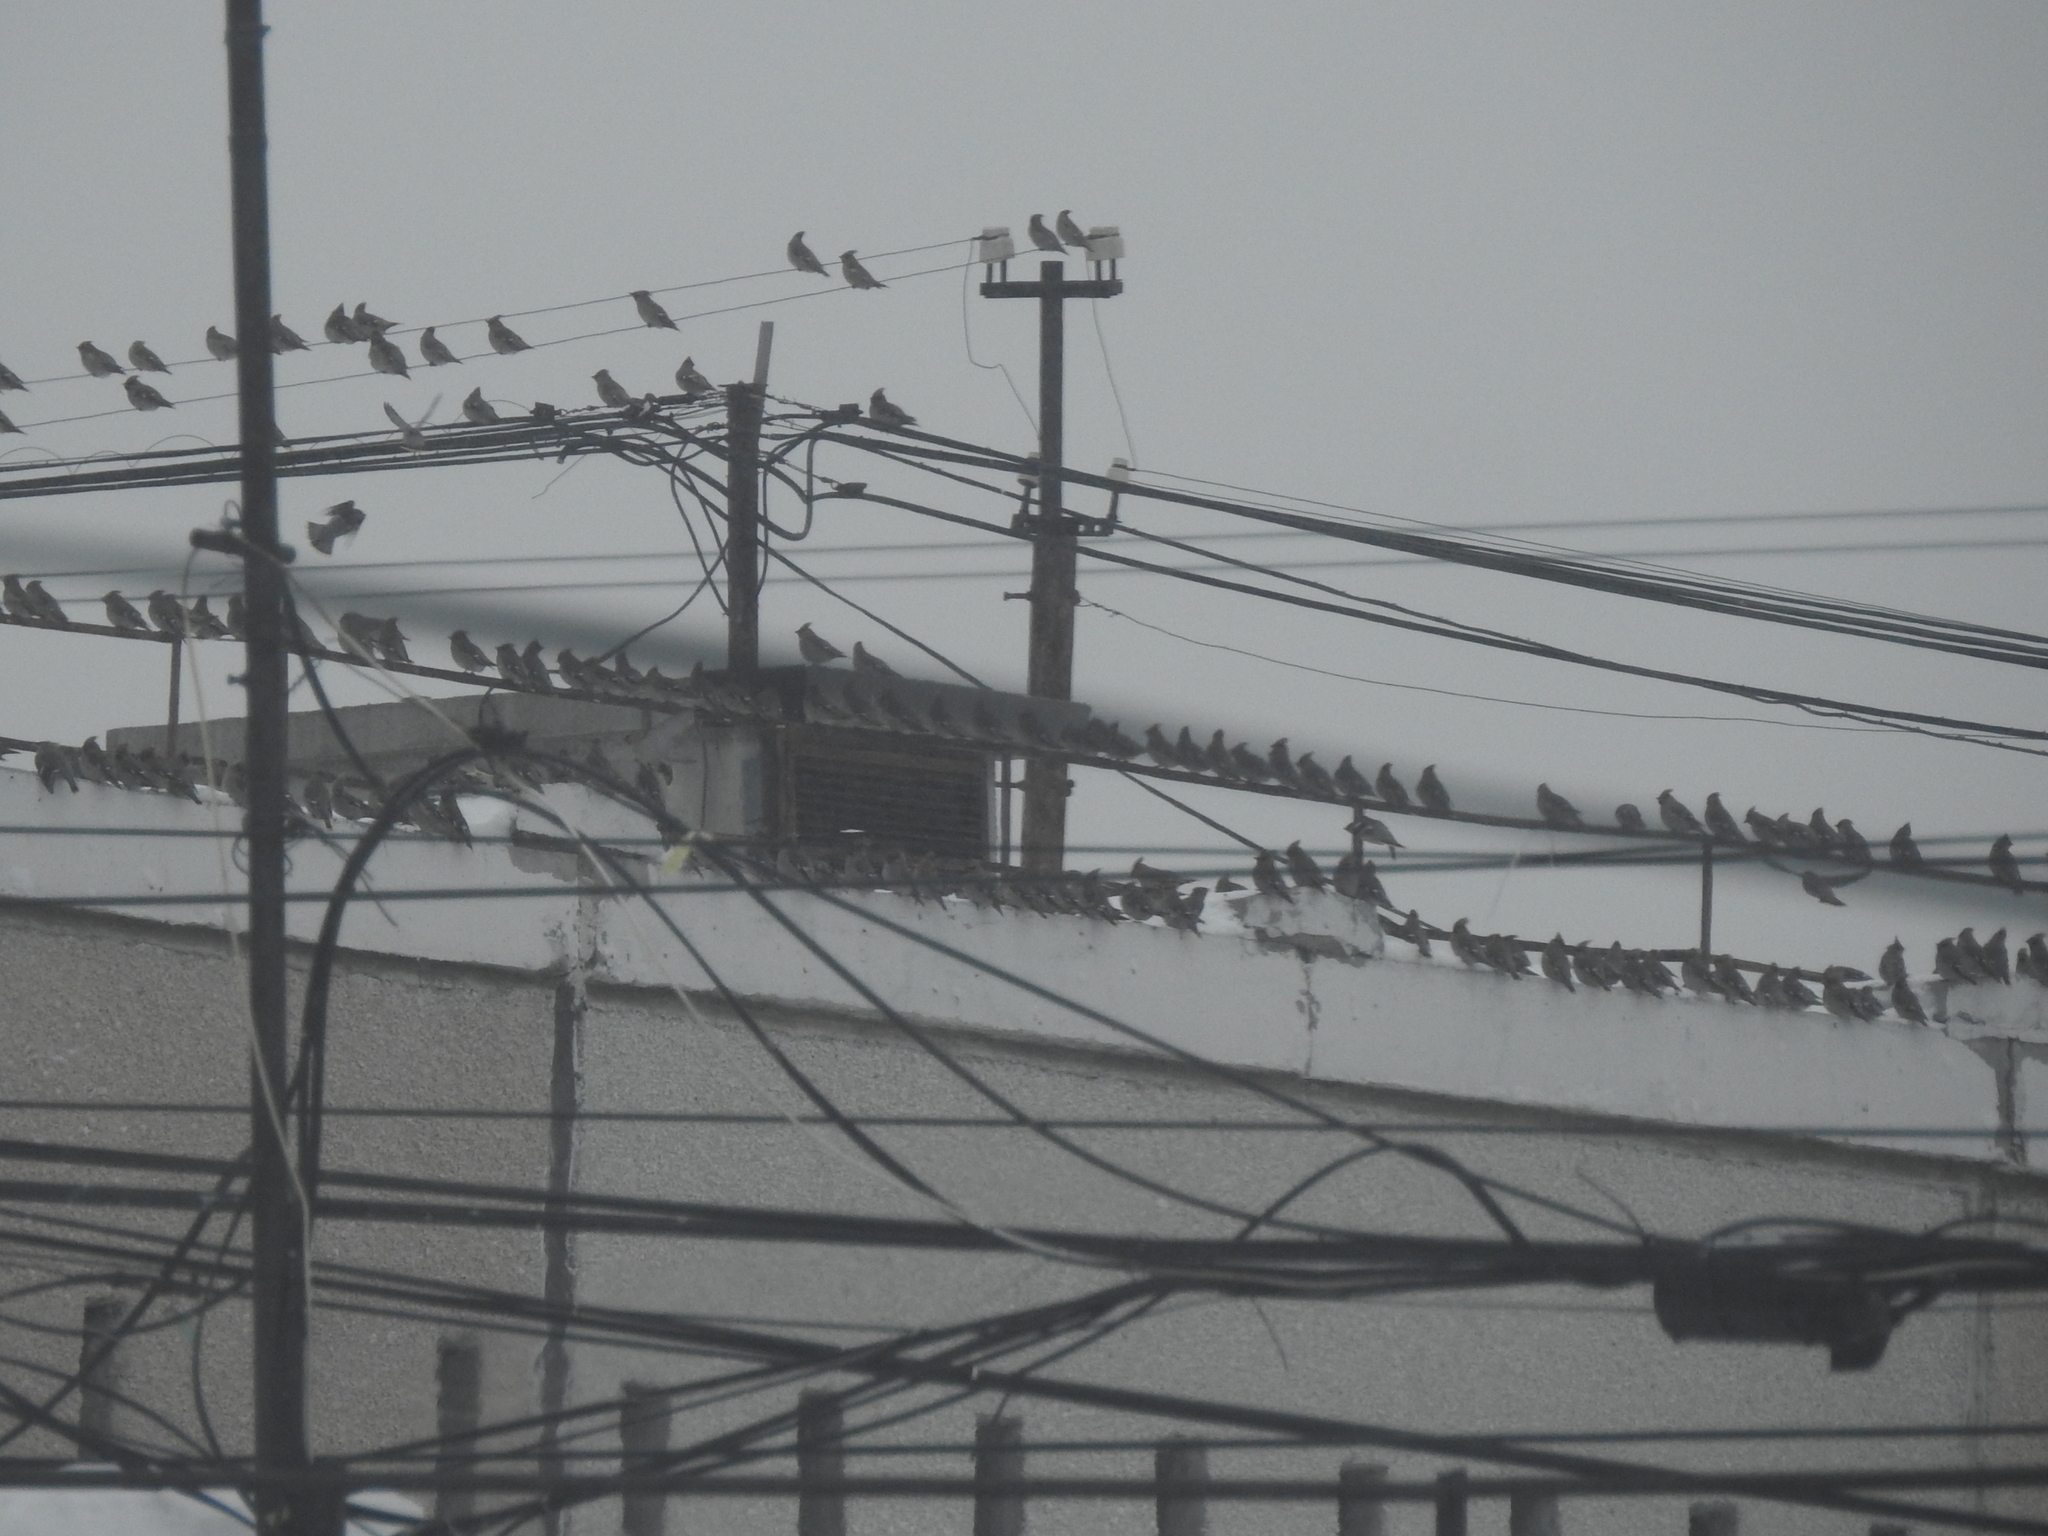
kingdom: Animalia
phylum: Chordata
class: Aves
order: Passeriformes
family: Bombycillidae
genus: Bombycilla
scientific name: Bombycilla garrulus
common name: Bohemian waxwing
